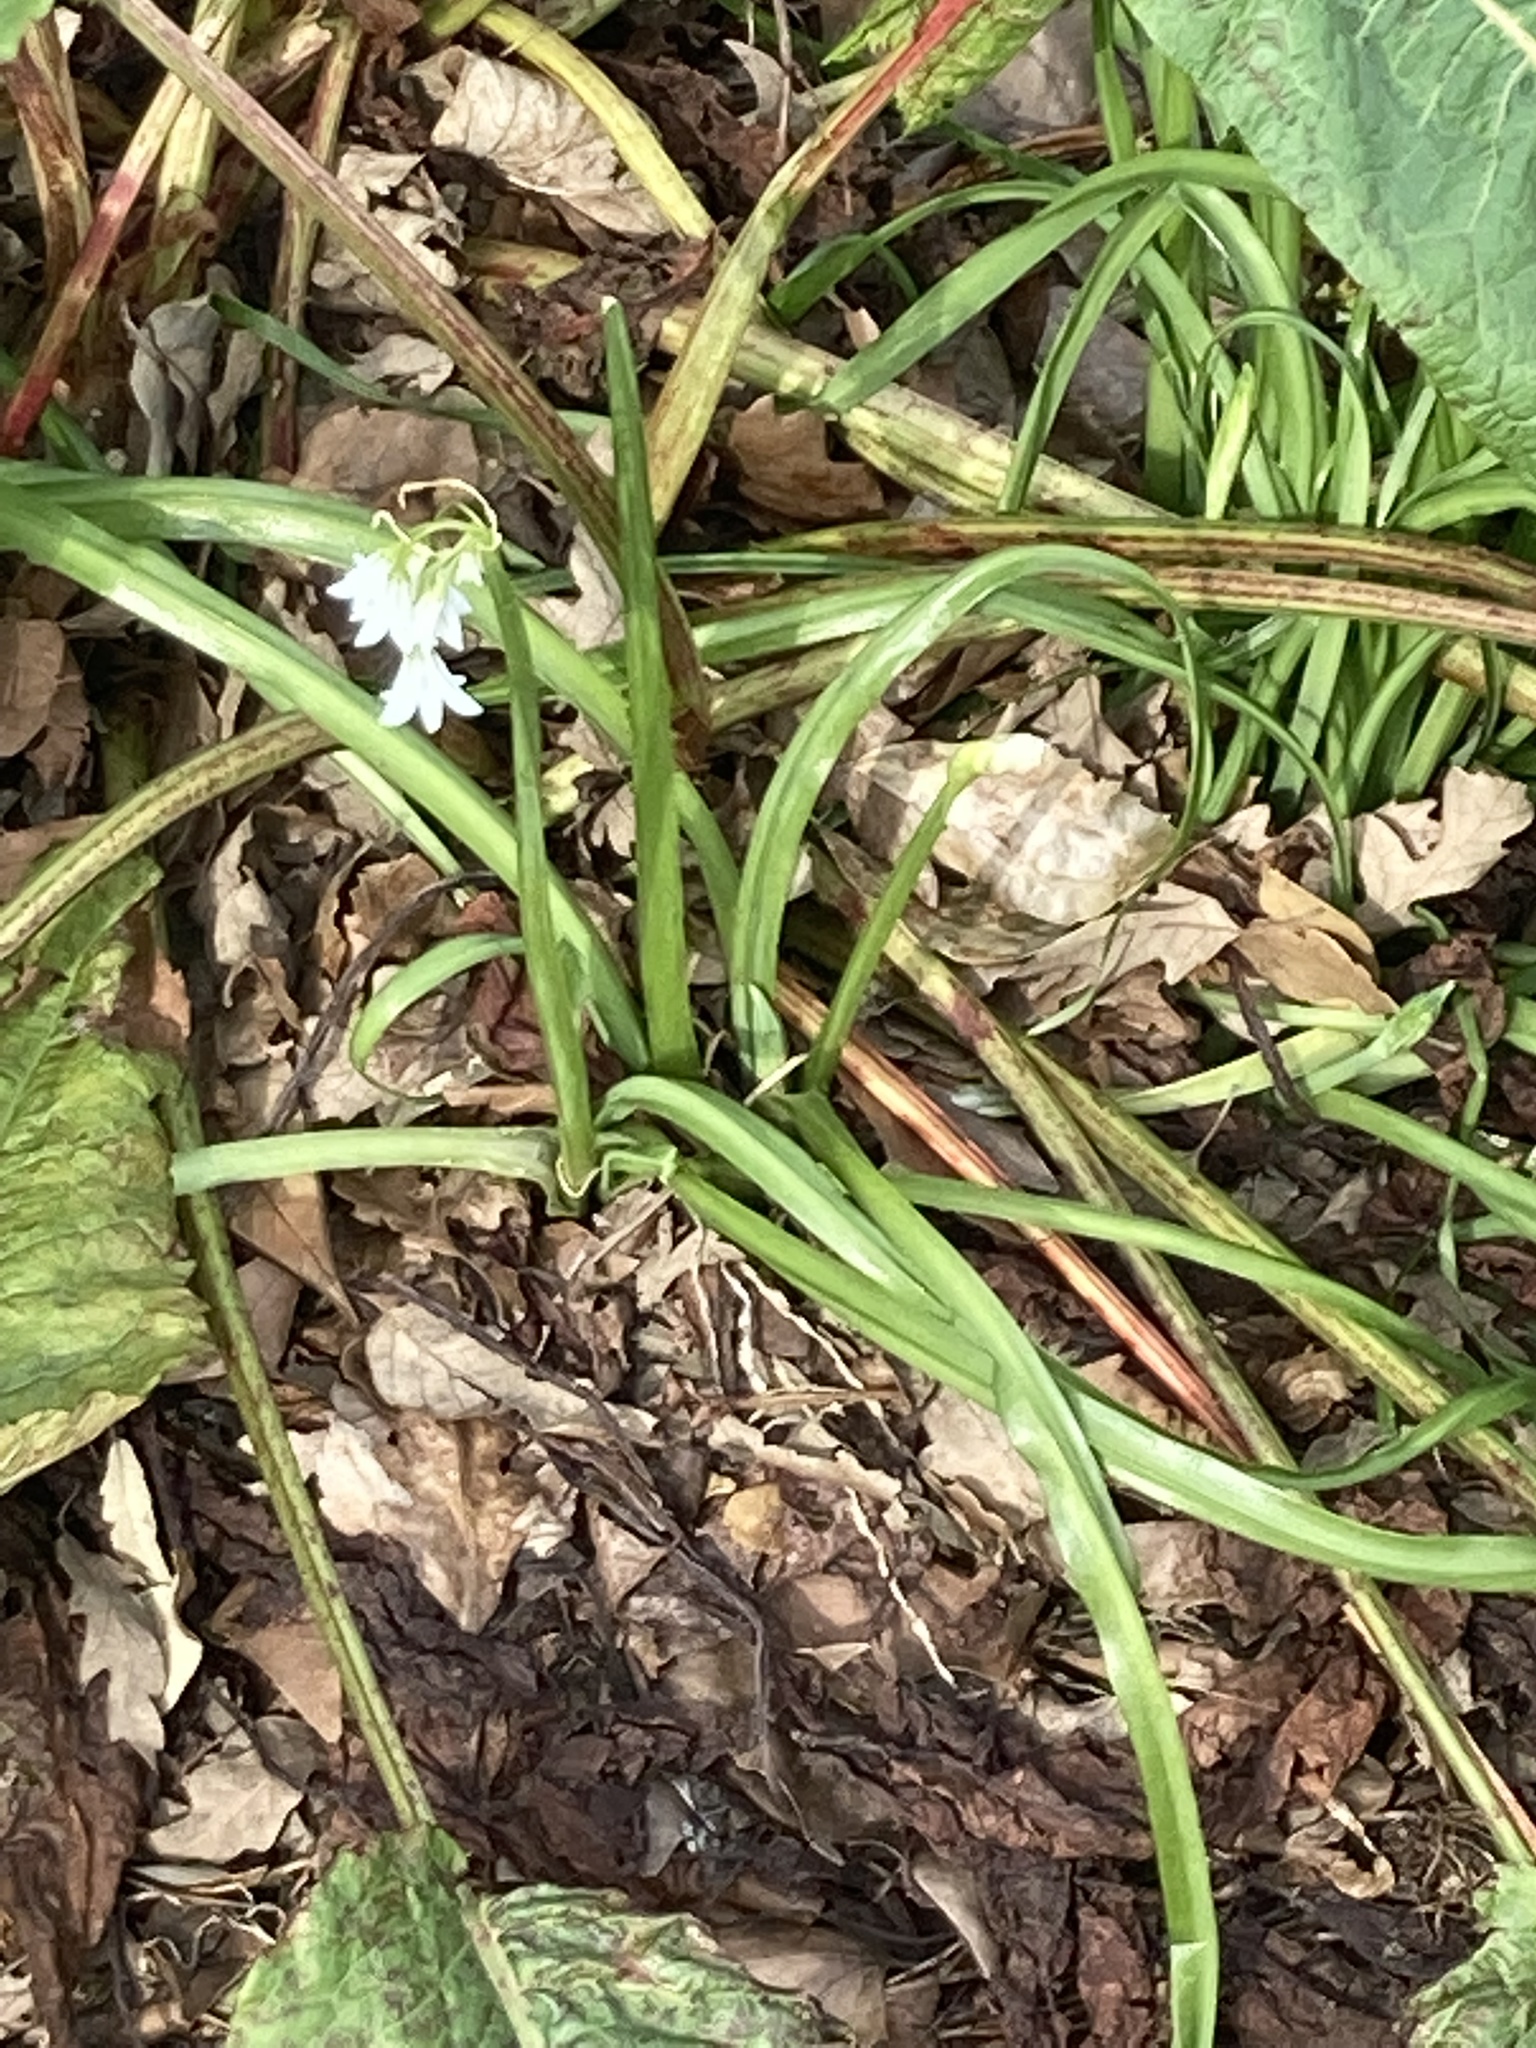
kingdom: Plantae
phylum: Tracheophyta
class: Liliopsida
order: Asparagales
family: Amaryllidaceae
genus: Allium
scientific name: Allium triquetrum
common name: Three-cornered garlic
